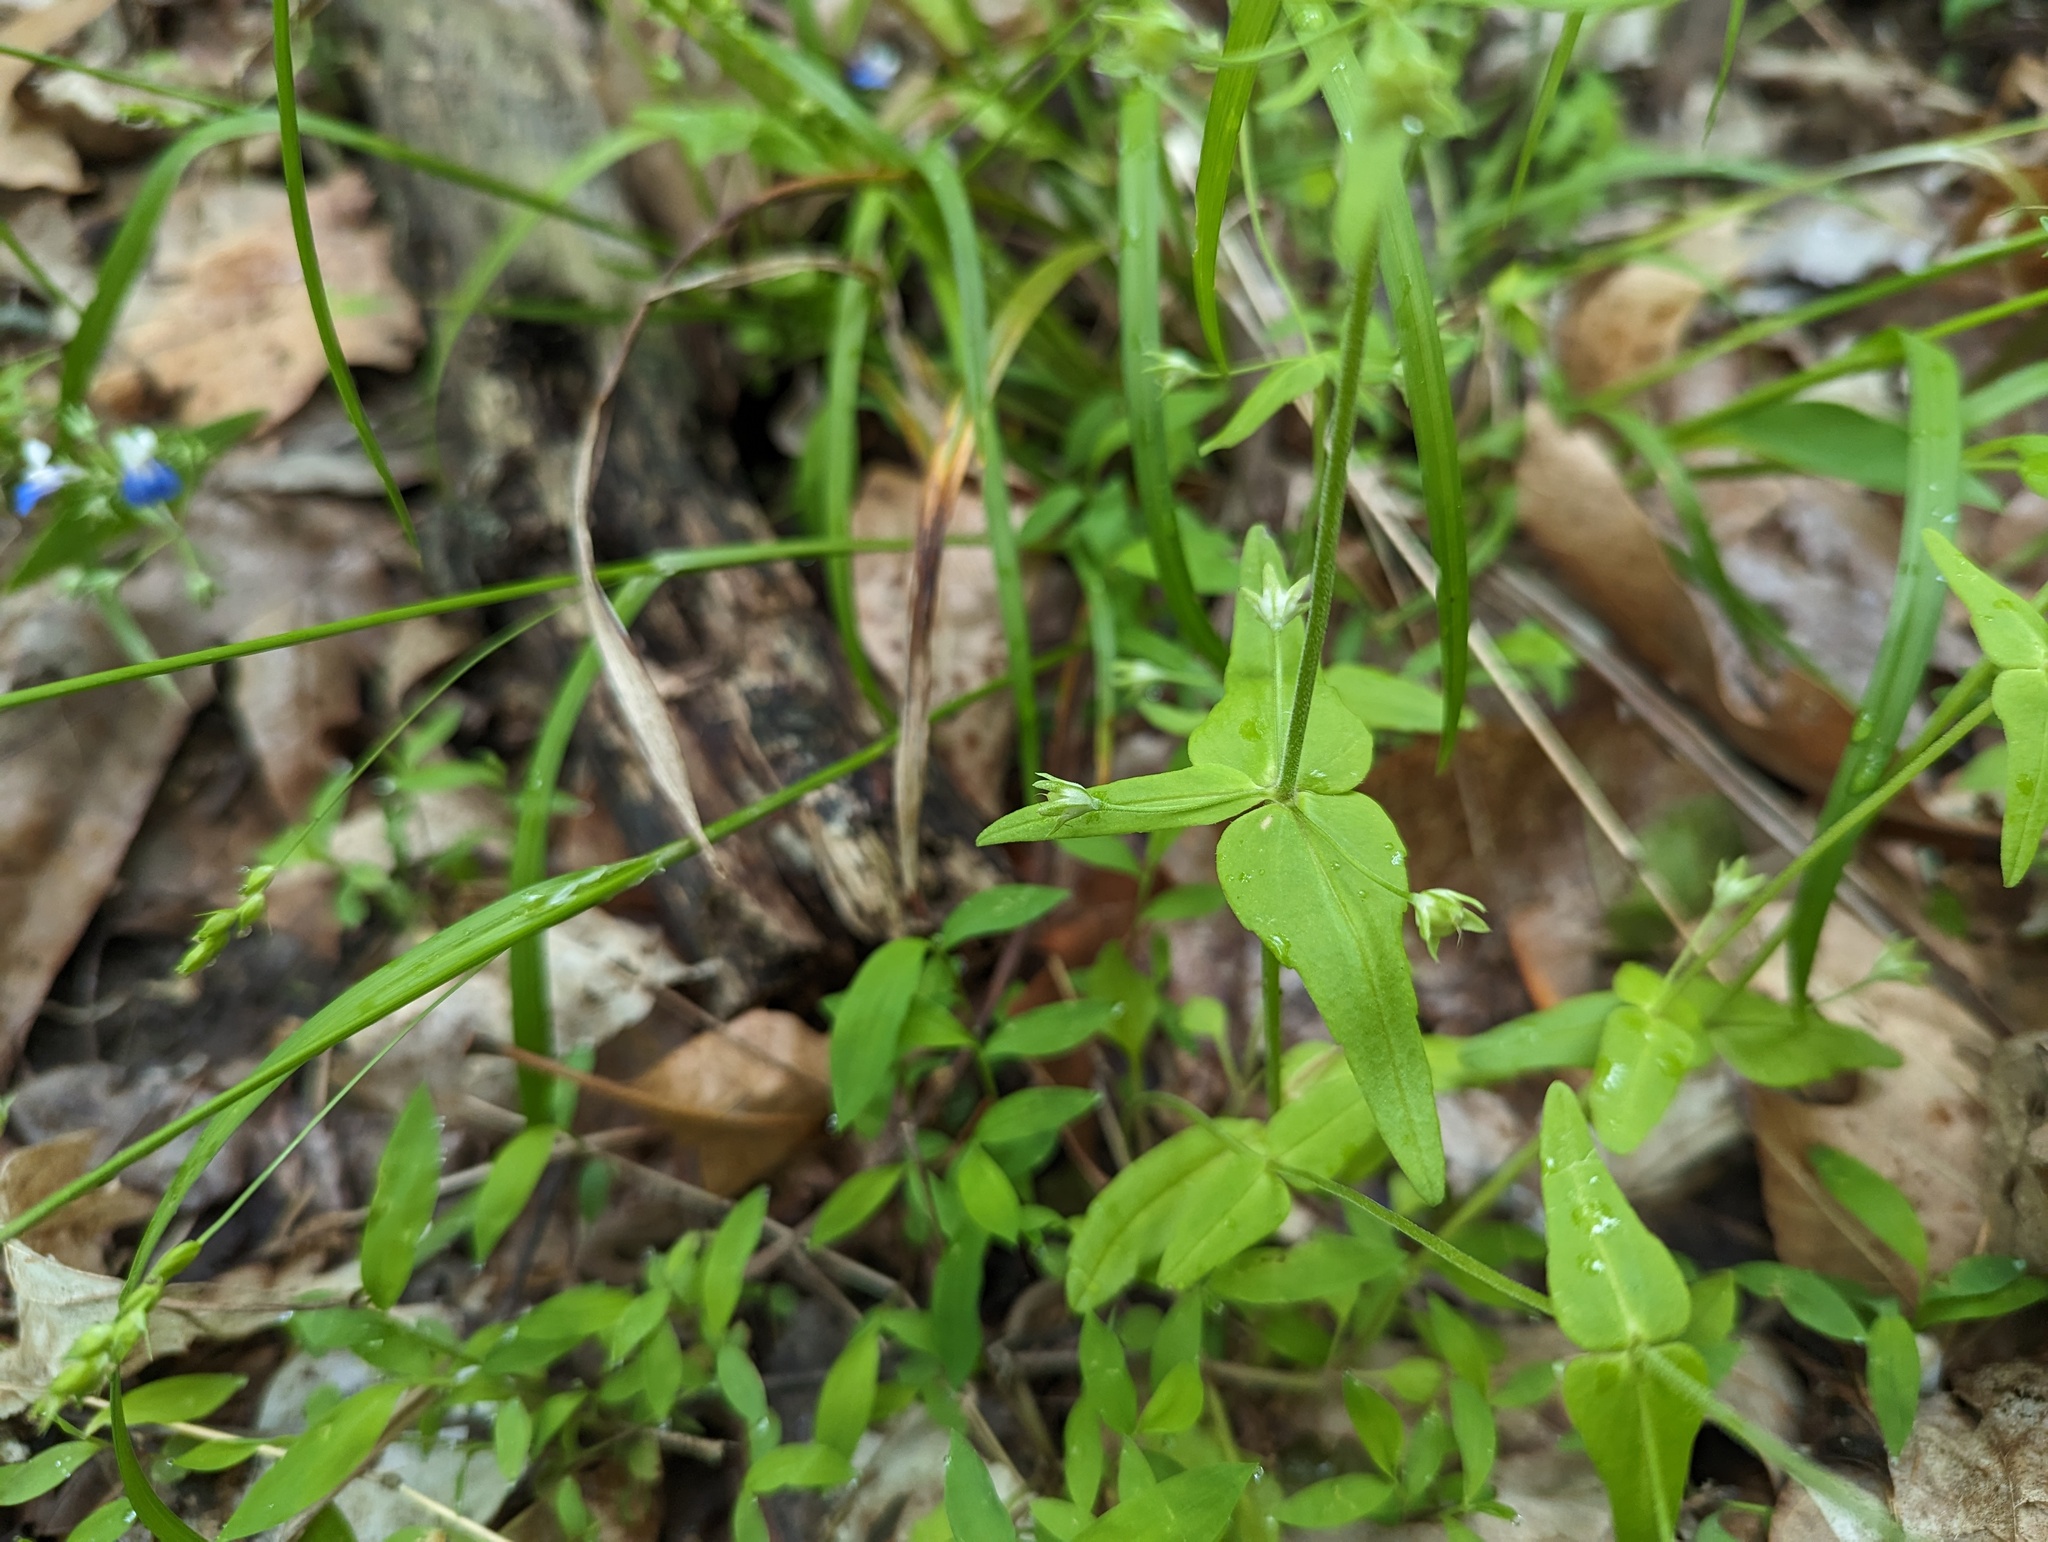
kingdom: Plantae
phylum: Tracheophyta
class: Magnoliopsida
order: Lamiales
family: Plantaginaceae
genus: Collinsia
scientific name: Collinsia verna
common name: Broad-leaved collinsia
